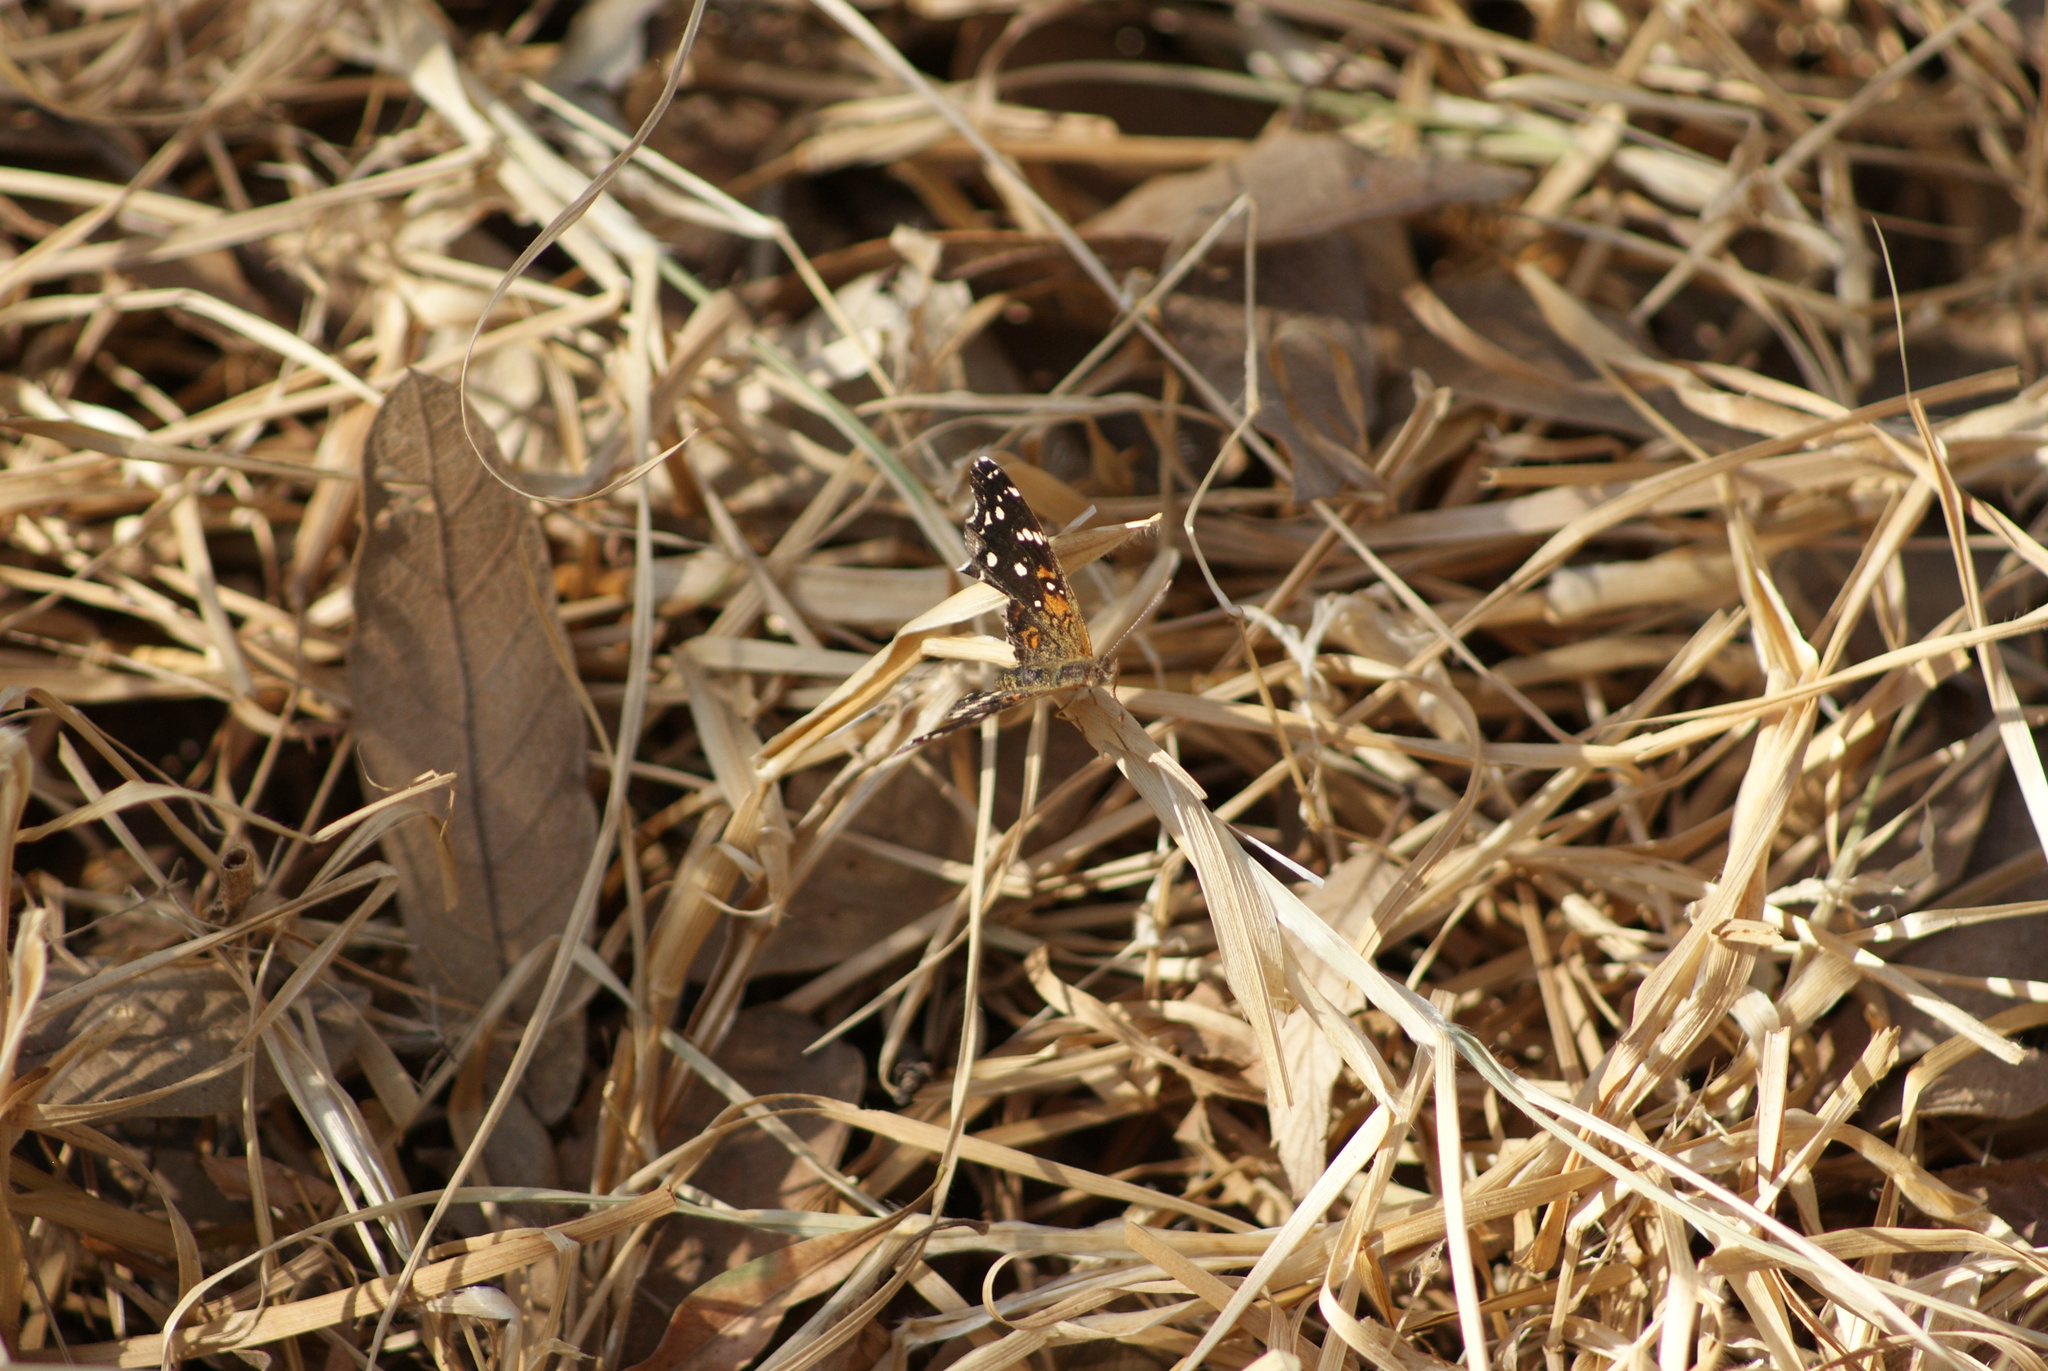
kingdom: Animalia
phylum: Arthropoda
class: Insecta
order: Lepidoptera
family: Nymphalidae
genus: Anthanassa
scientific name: Anthanassa texana
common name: Texan crescent
